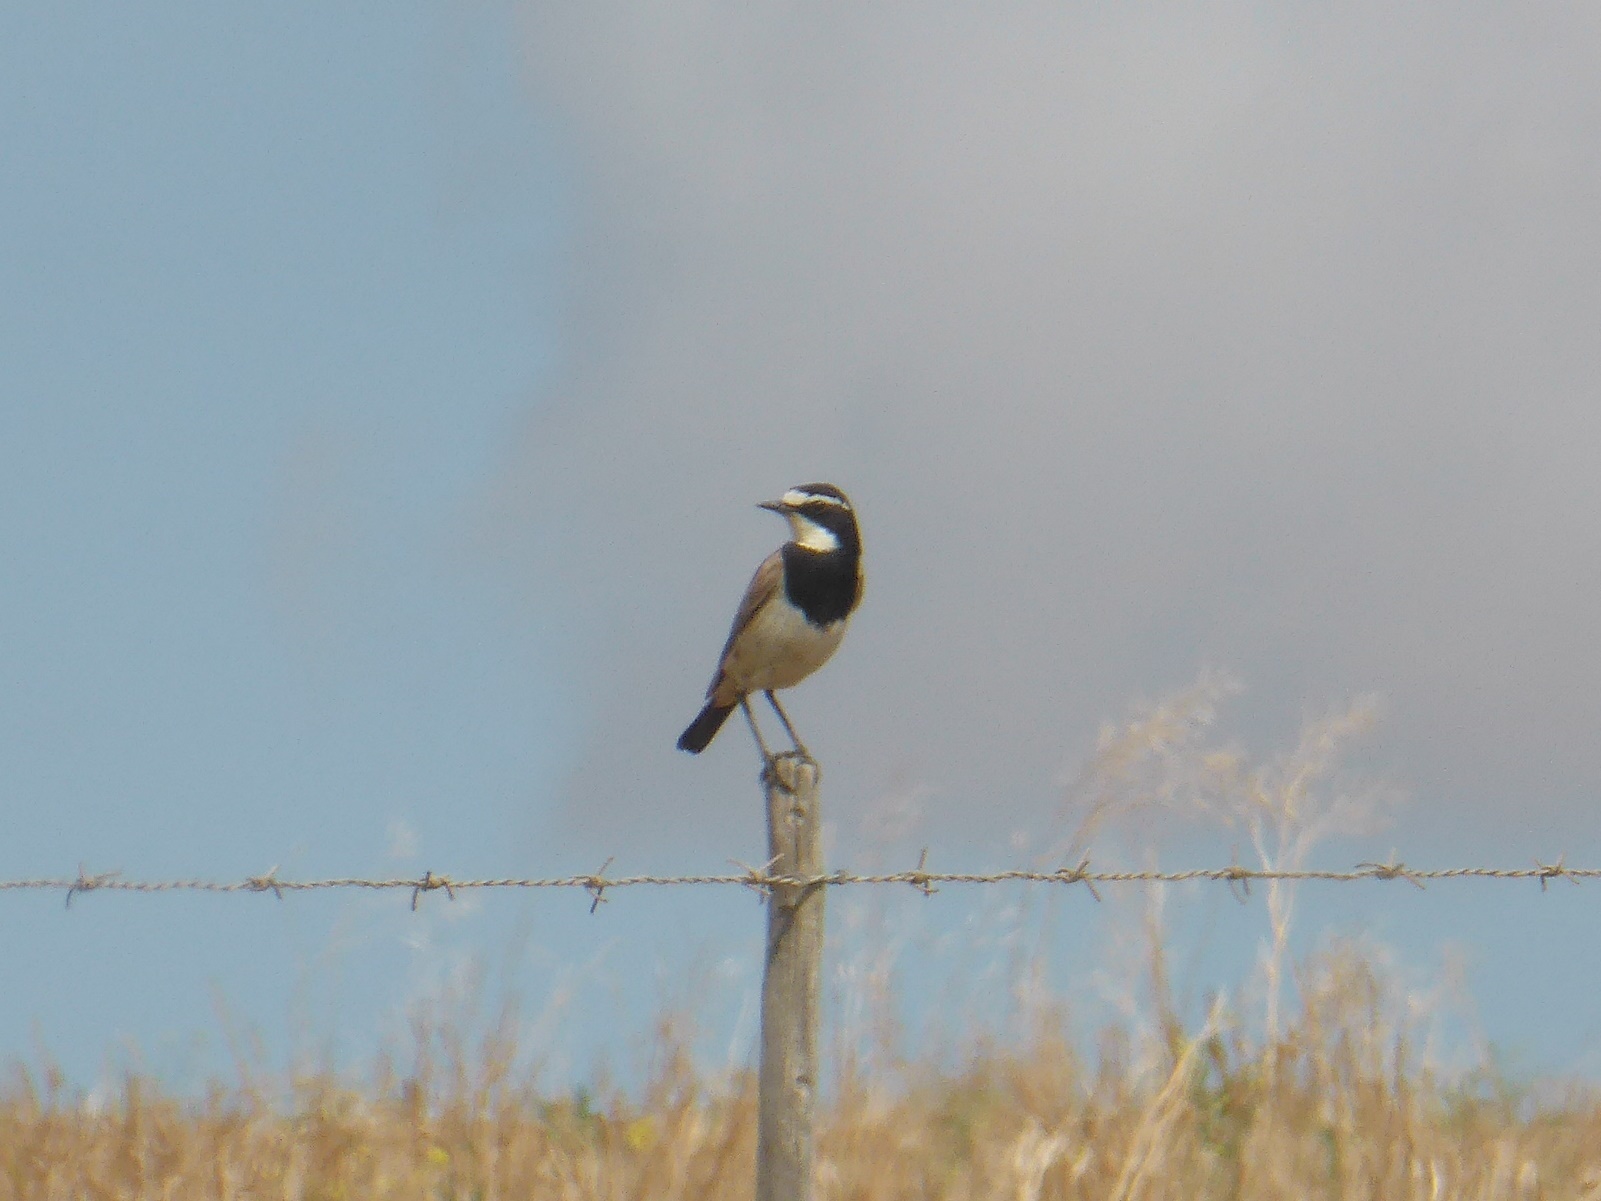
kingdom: Animalia
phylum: Chordata
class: Aves
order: Passeriformes
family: Muscicapidae
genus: Oenanthe
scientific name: Oenanthe pileata
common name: Capped wheatear
